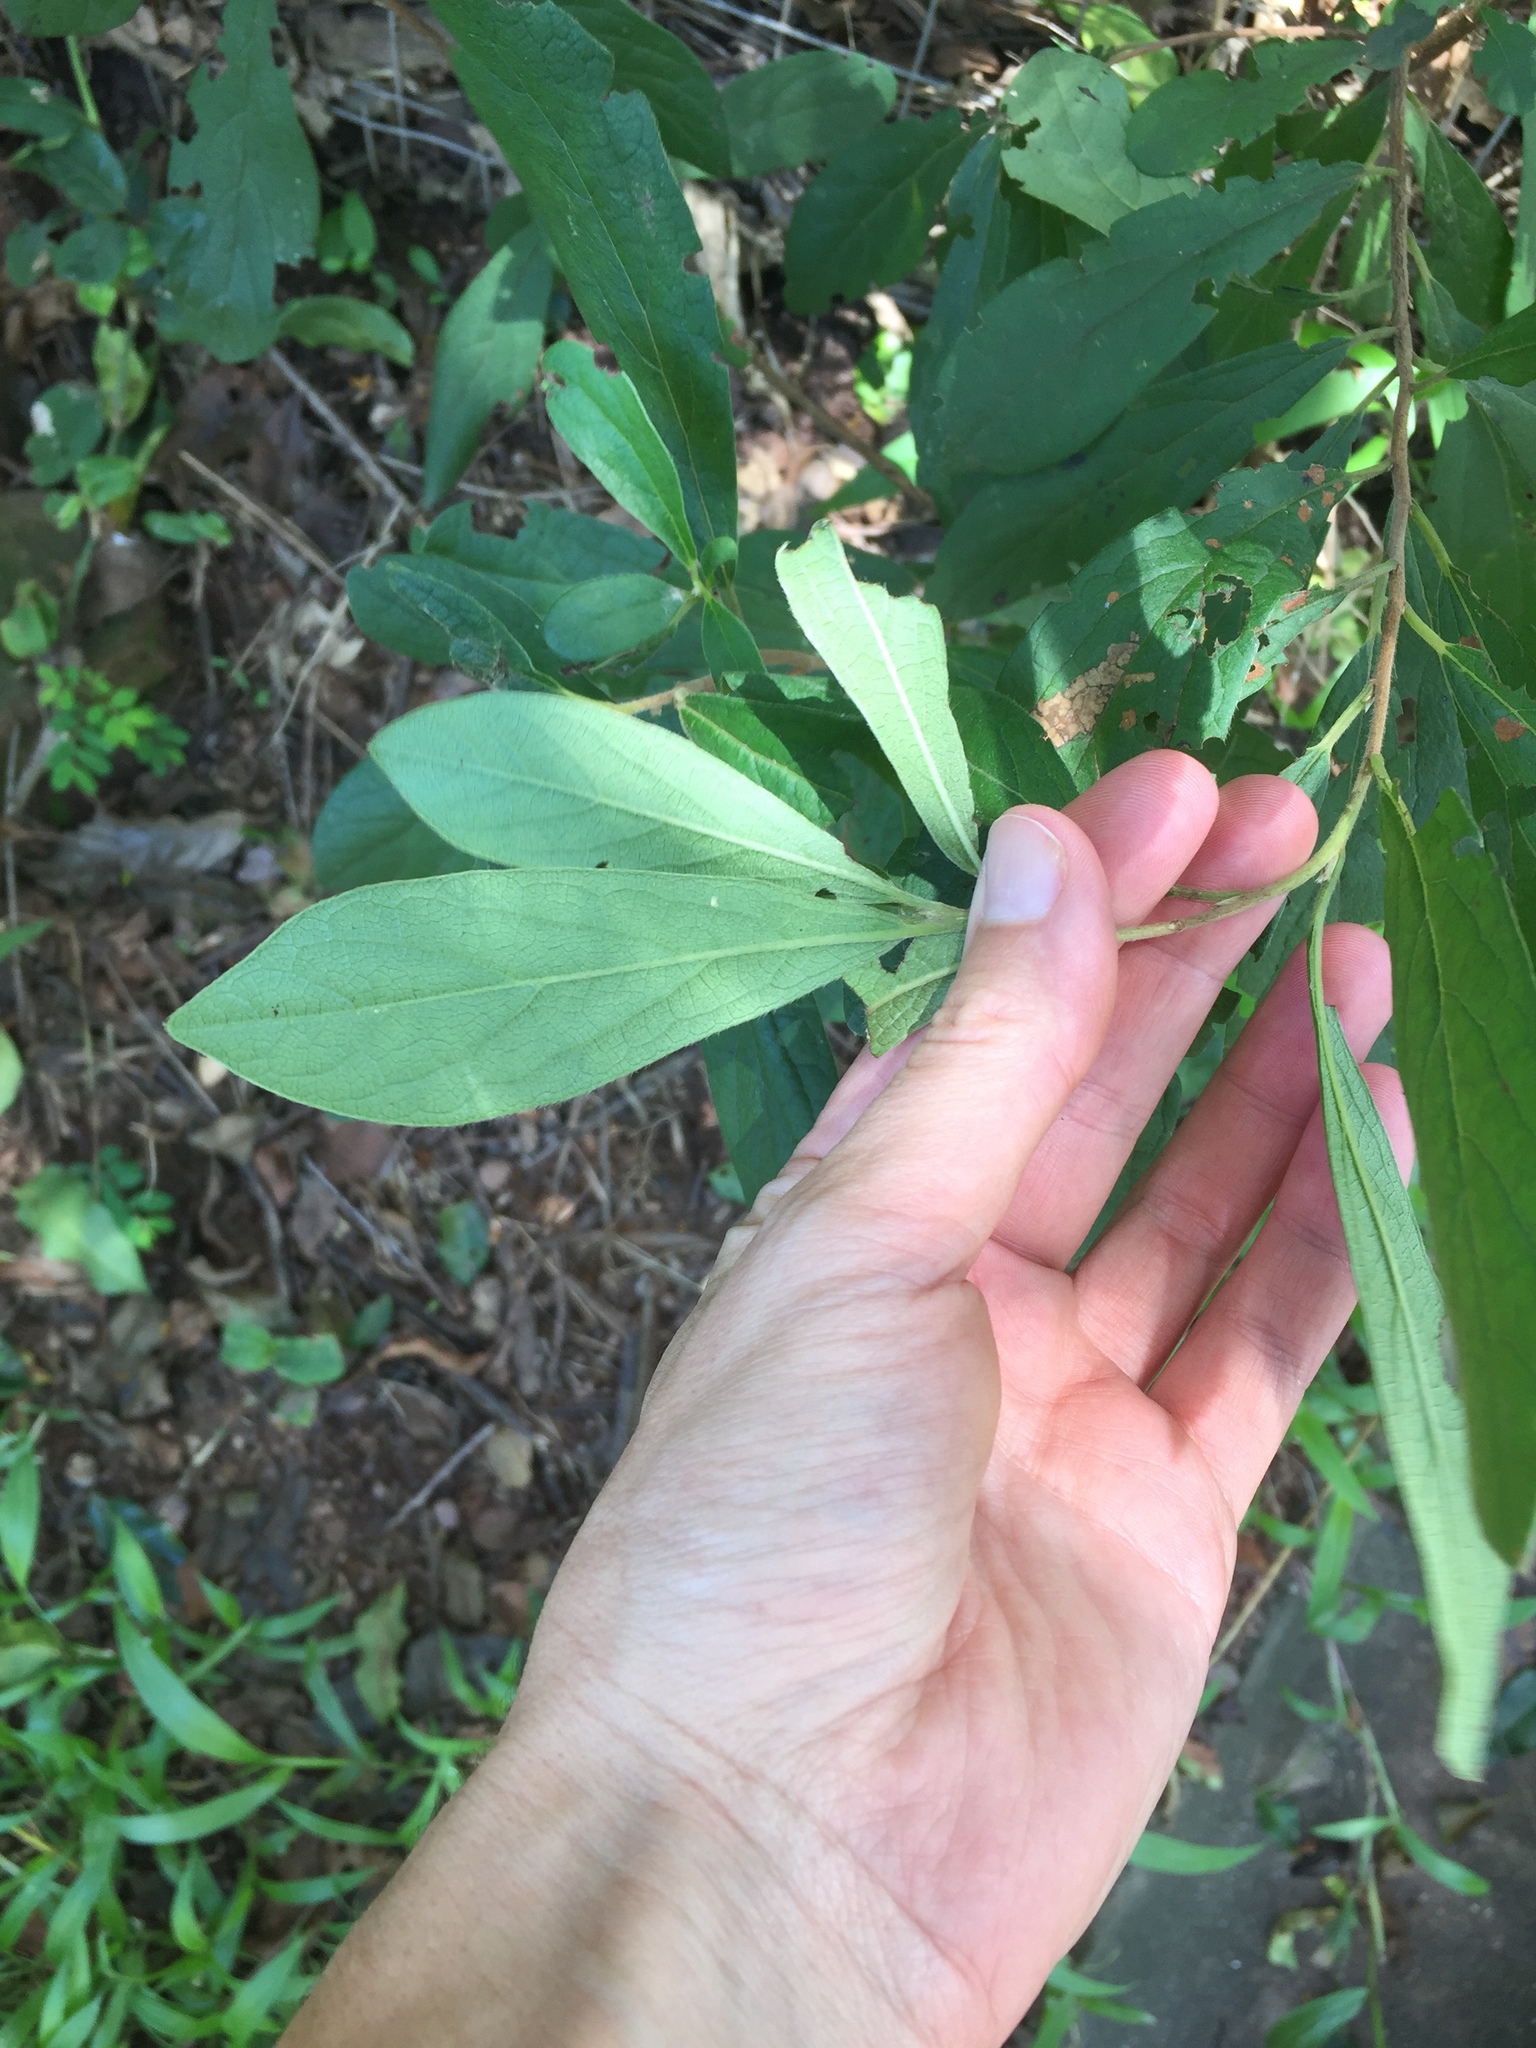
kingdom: Plantae
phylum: Tracheophyta
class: Magnoliopsida
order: Ericales
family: Ebenaceae
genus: Diospyros
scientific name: Diospyros lycioides
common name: Red star apple
